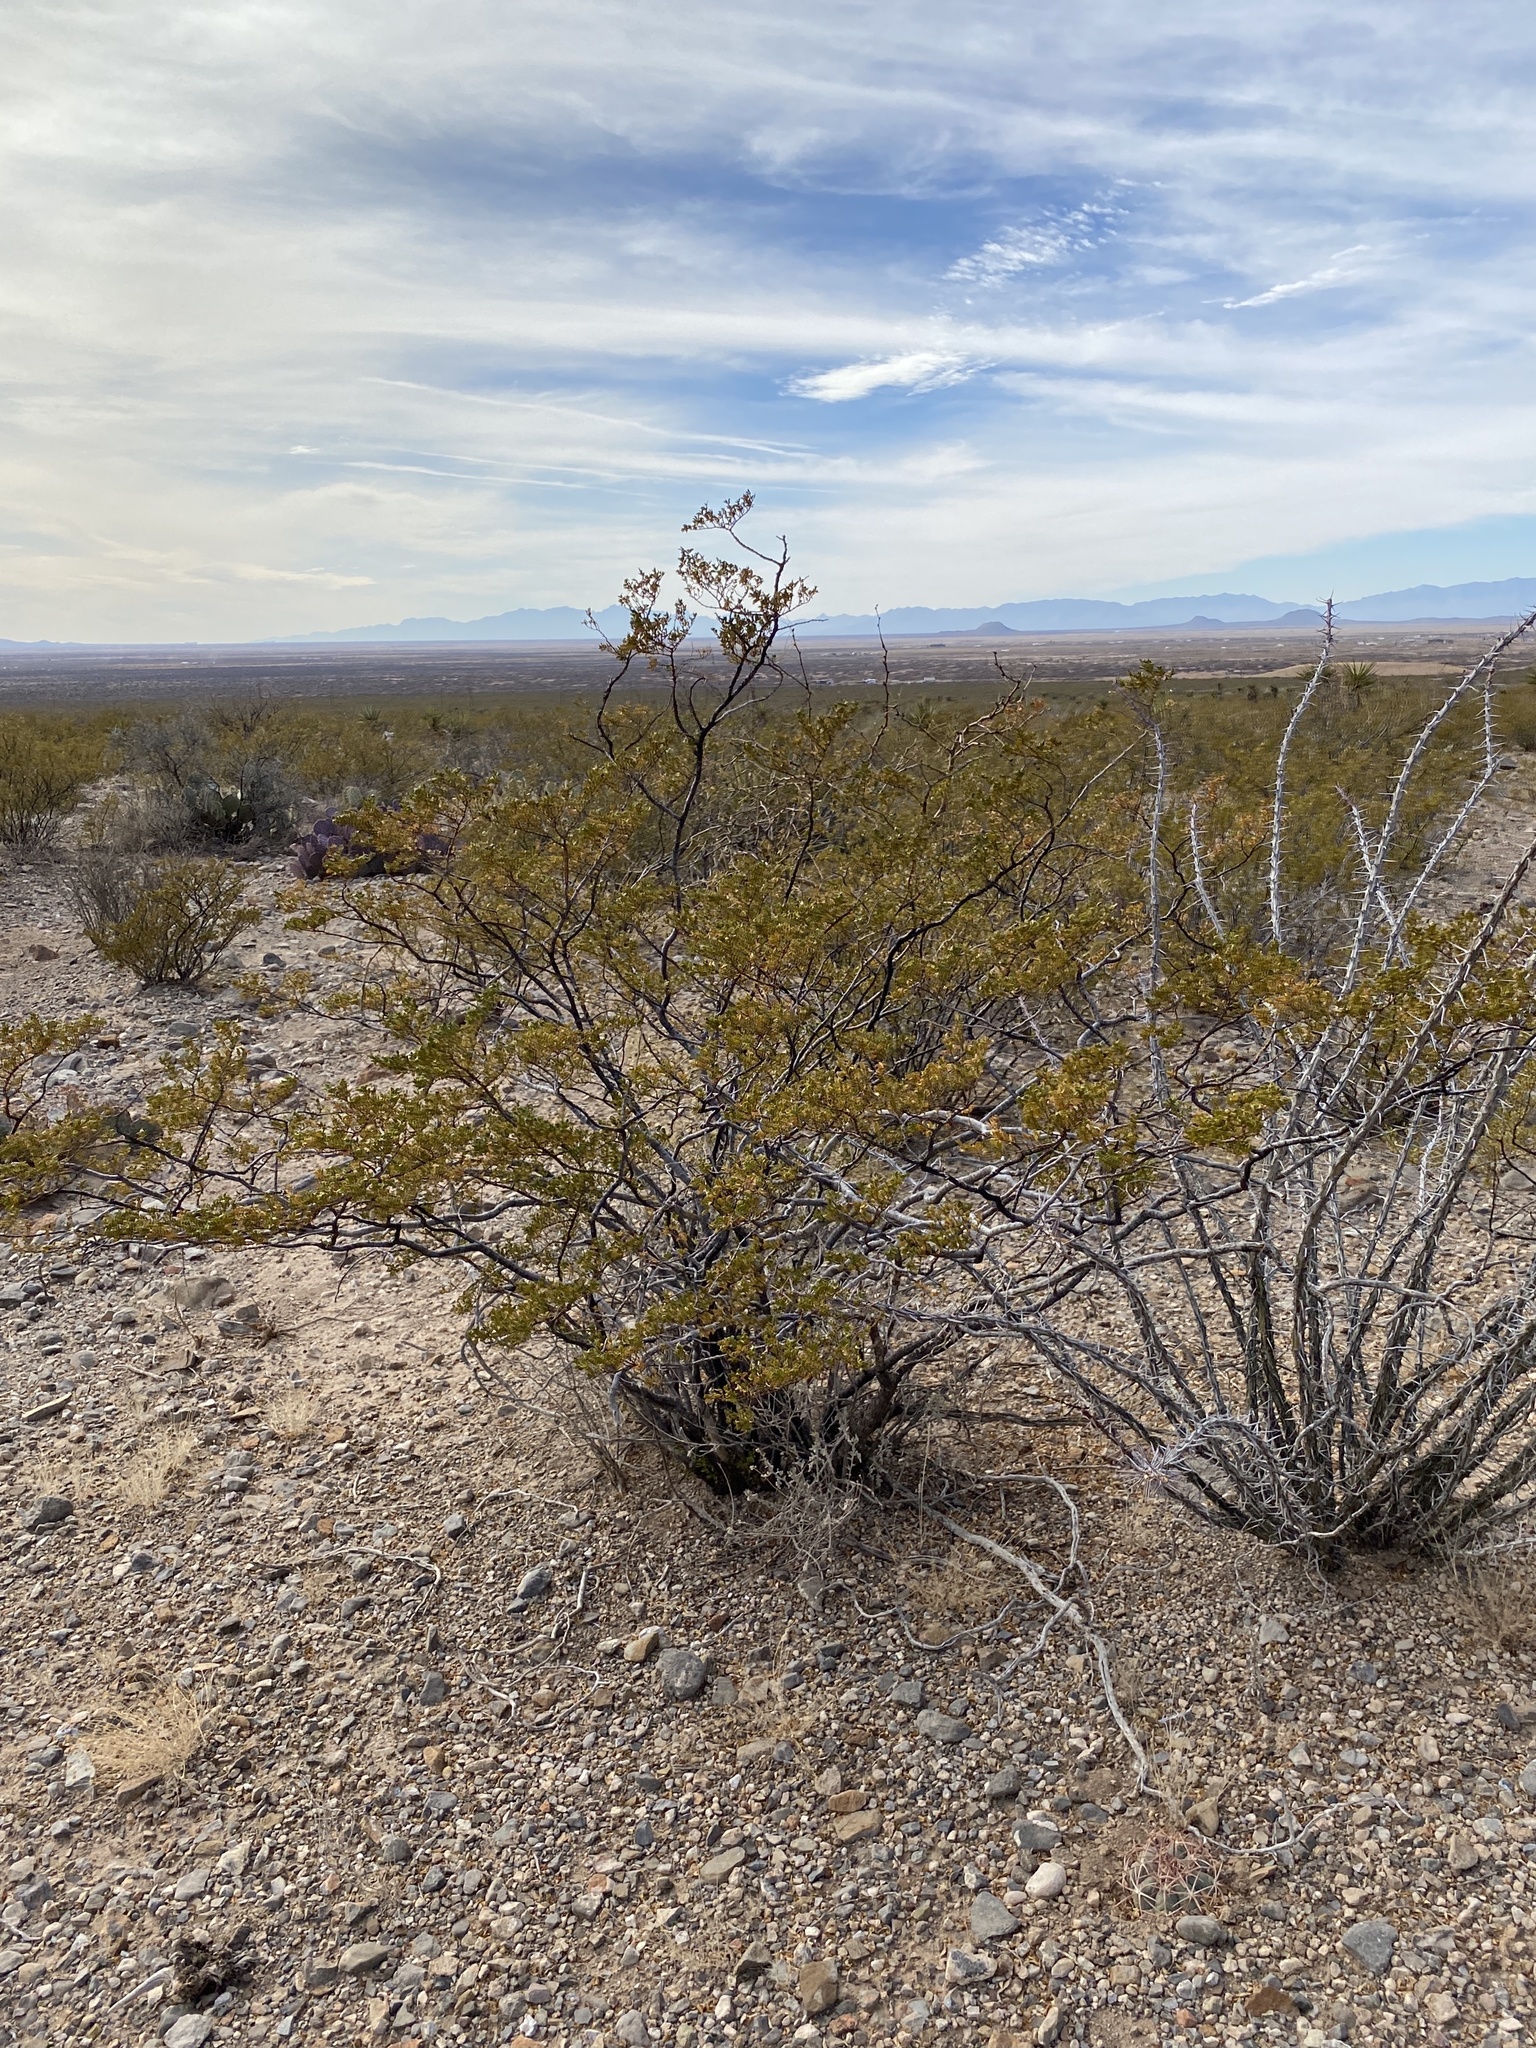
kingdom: Plantae
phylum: Tracheophyta
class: Magnoliopsida
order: Zygophyllales
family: Zygophyllaceae
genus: Larrea
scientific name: Larrea tridentata
